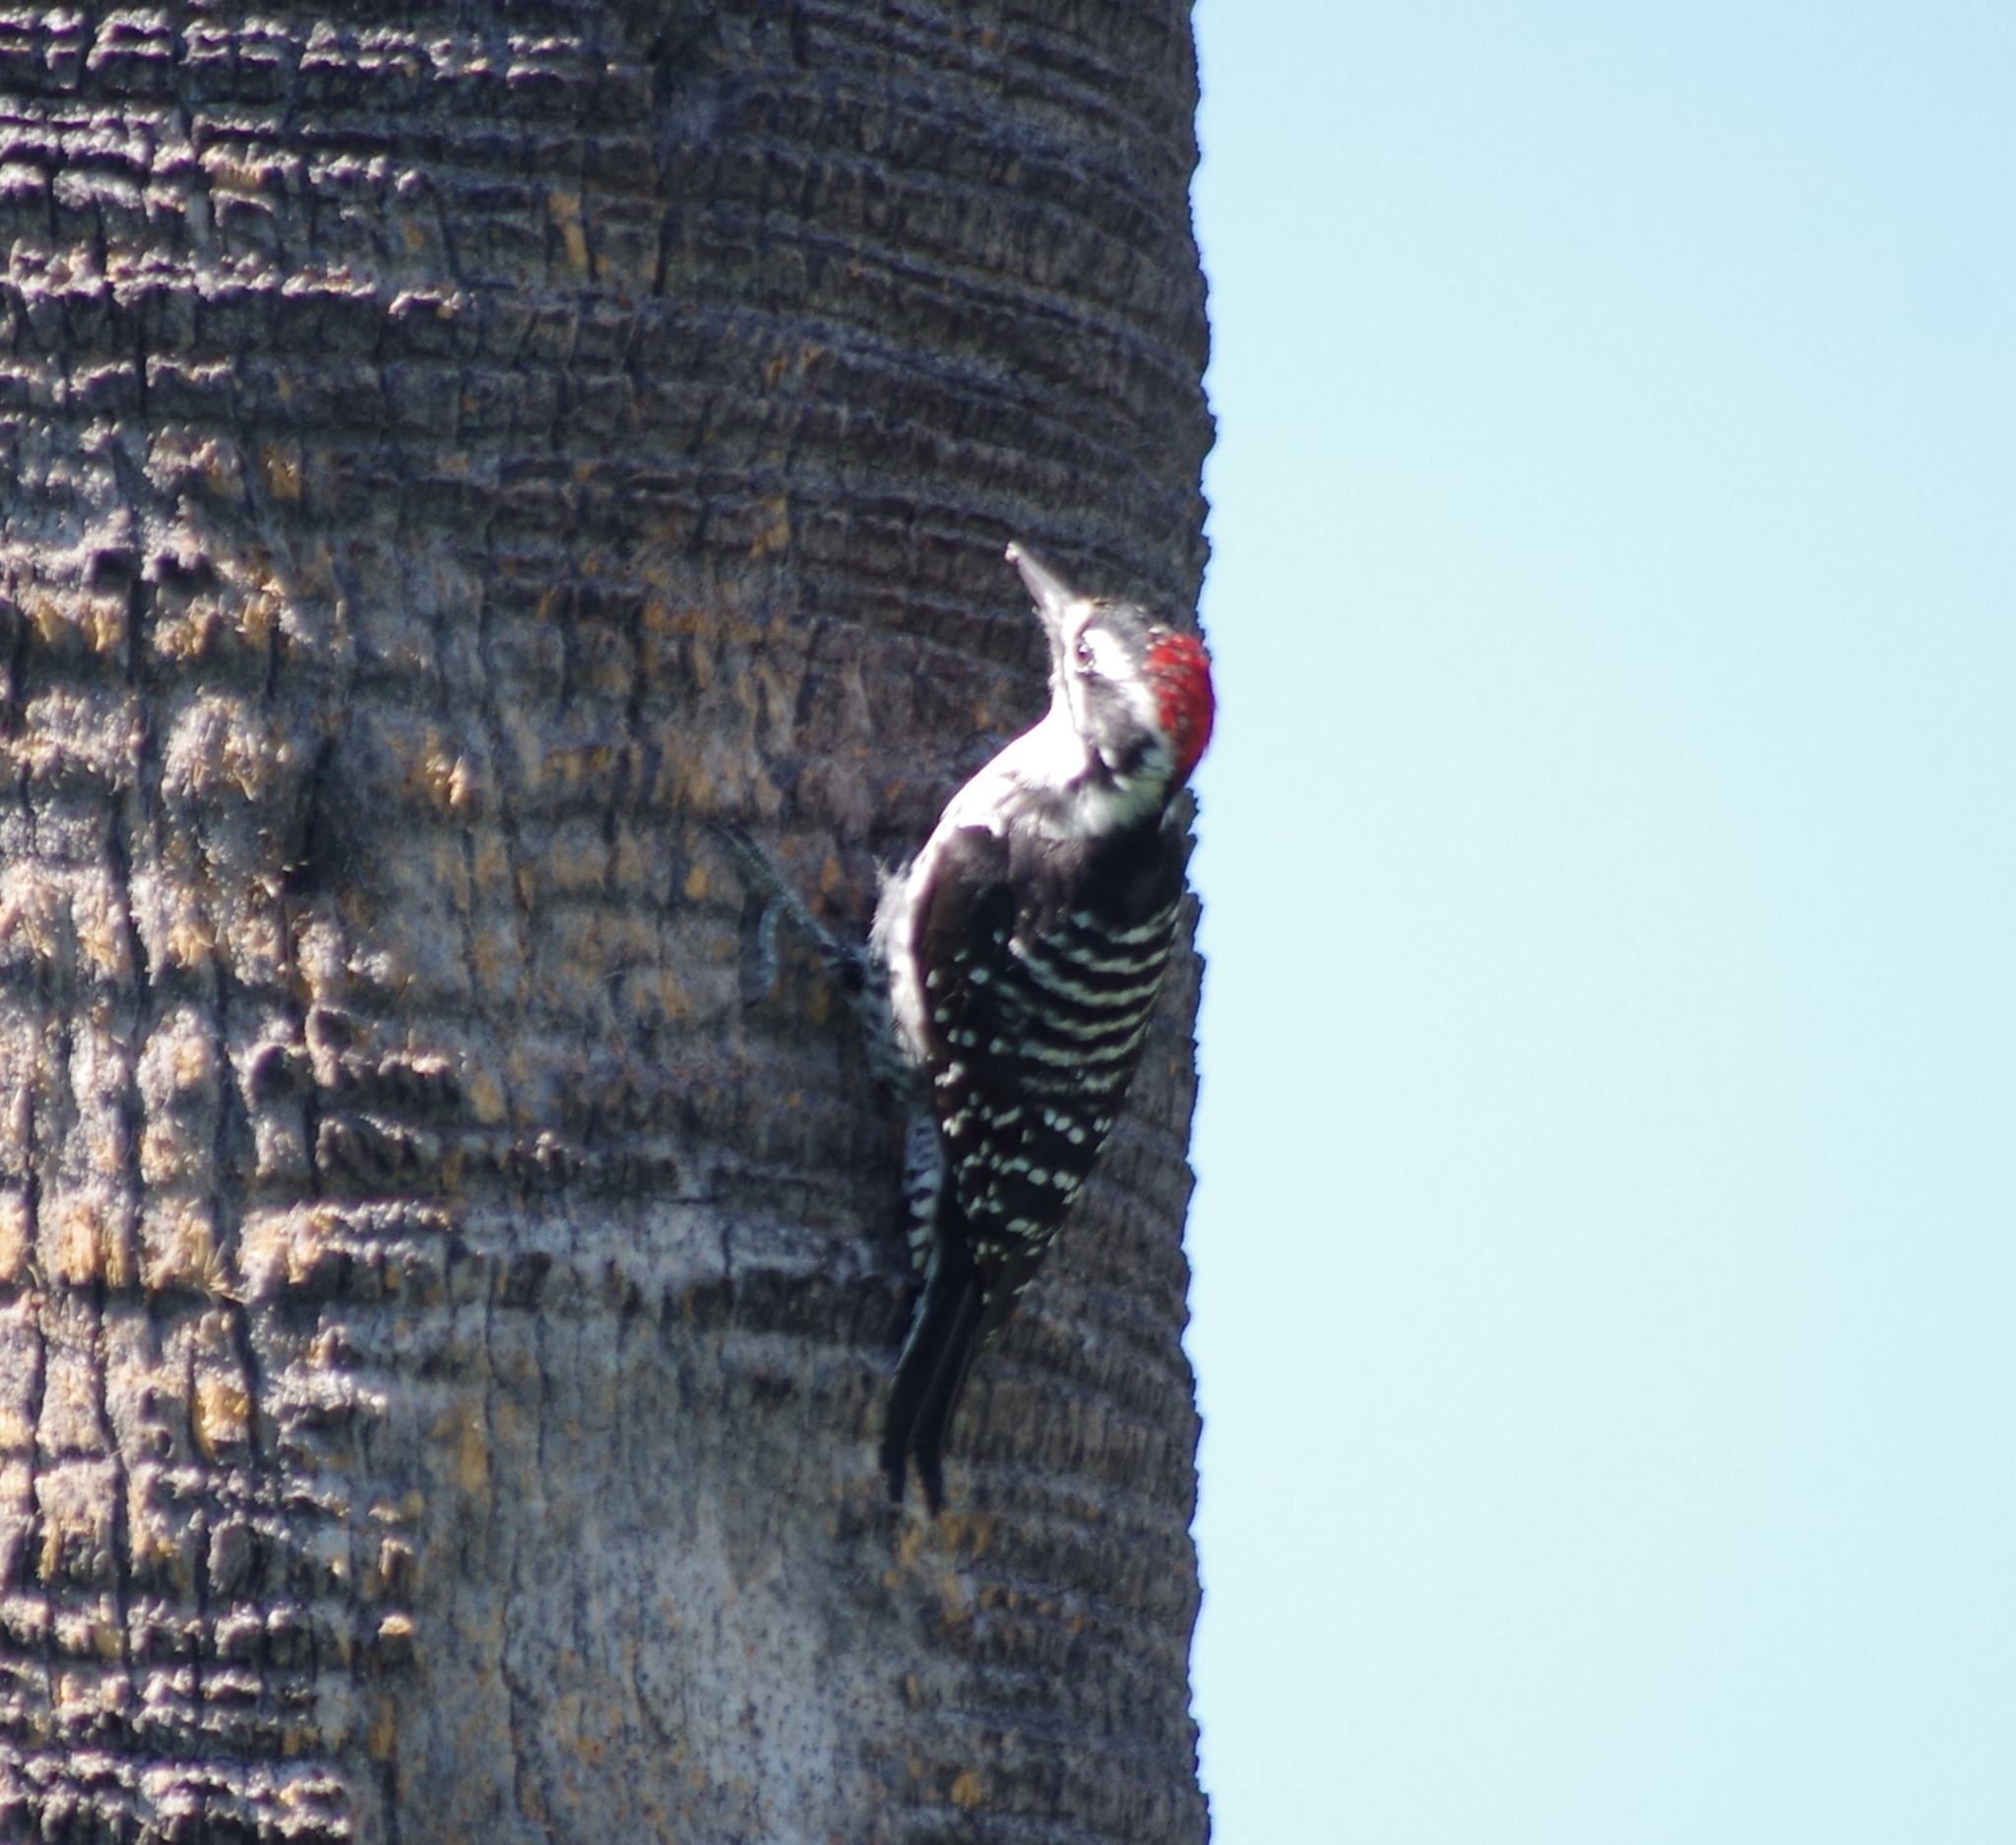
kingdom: Animalia
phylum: Chordata
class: Aves
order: Piciformes
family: Picidae
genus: Dryobates
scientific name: Dryobates nuttallii
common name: Nuttall's woodpecker
